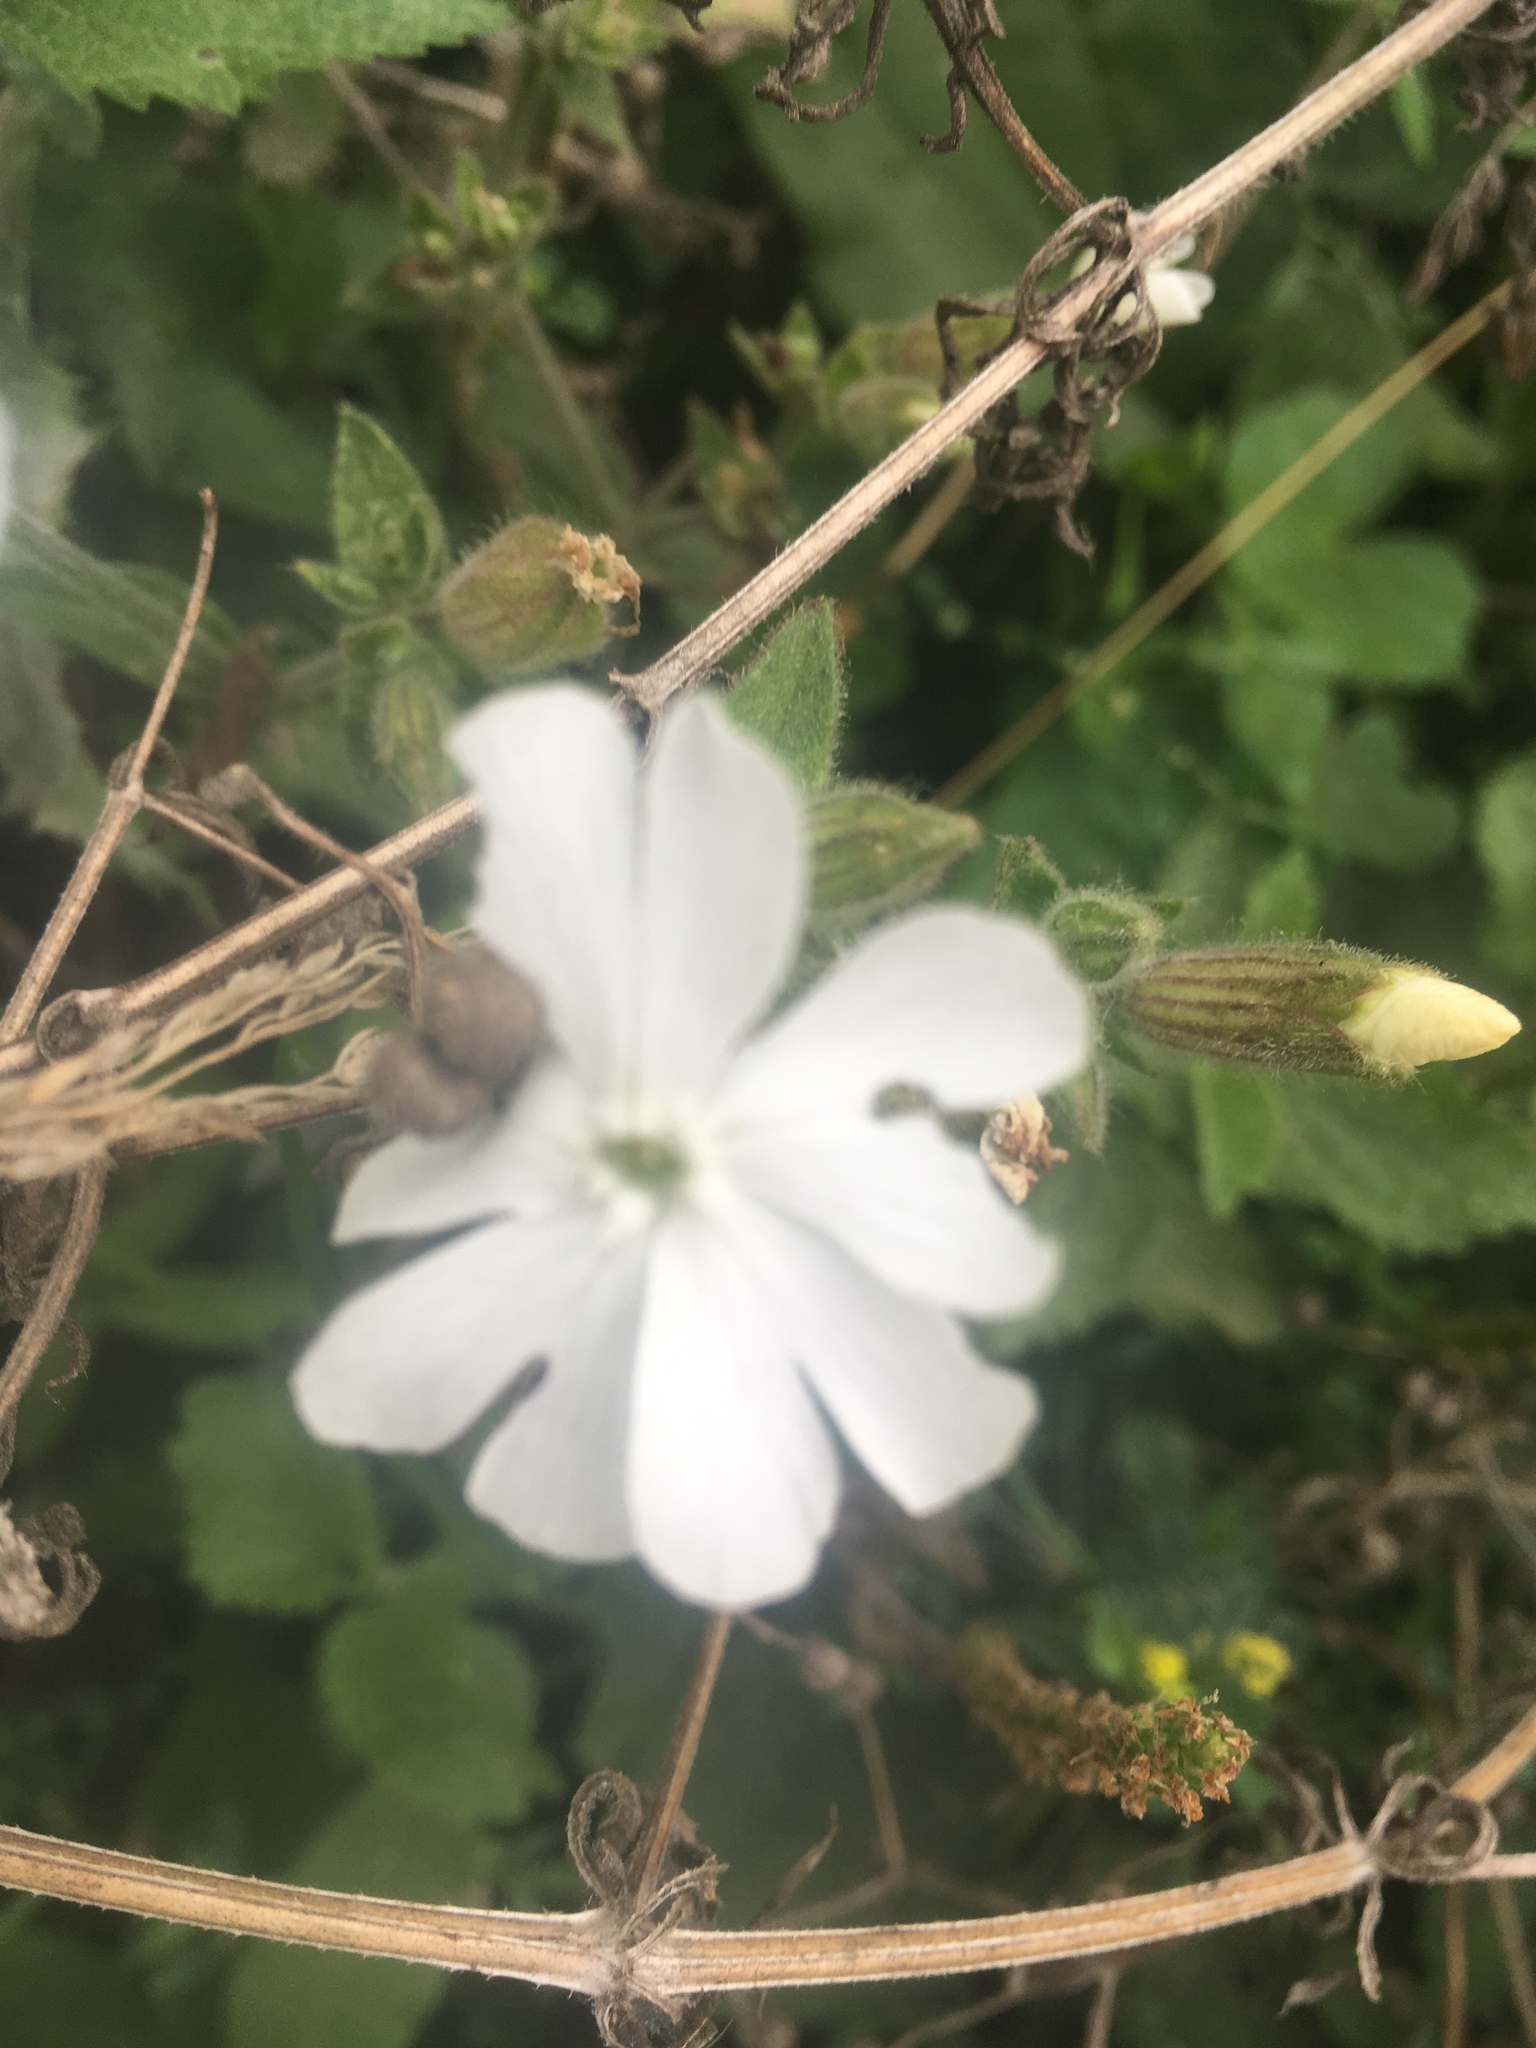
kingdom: Plantae
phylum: Tracheophyta
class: Magnoliopsida
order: Caryophyllales
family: Caryophyllaceae
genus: Silene
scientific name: Silene latifolia
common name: White campion
